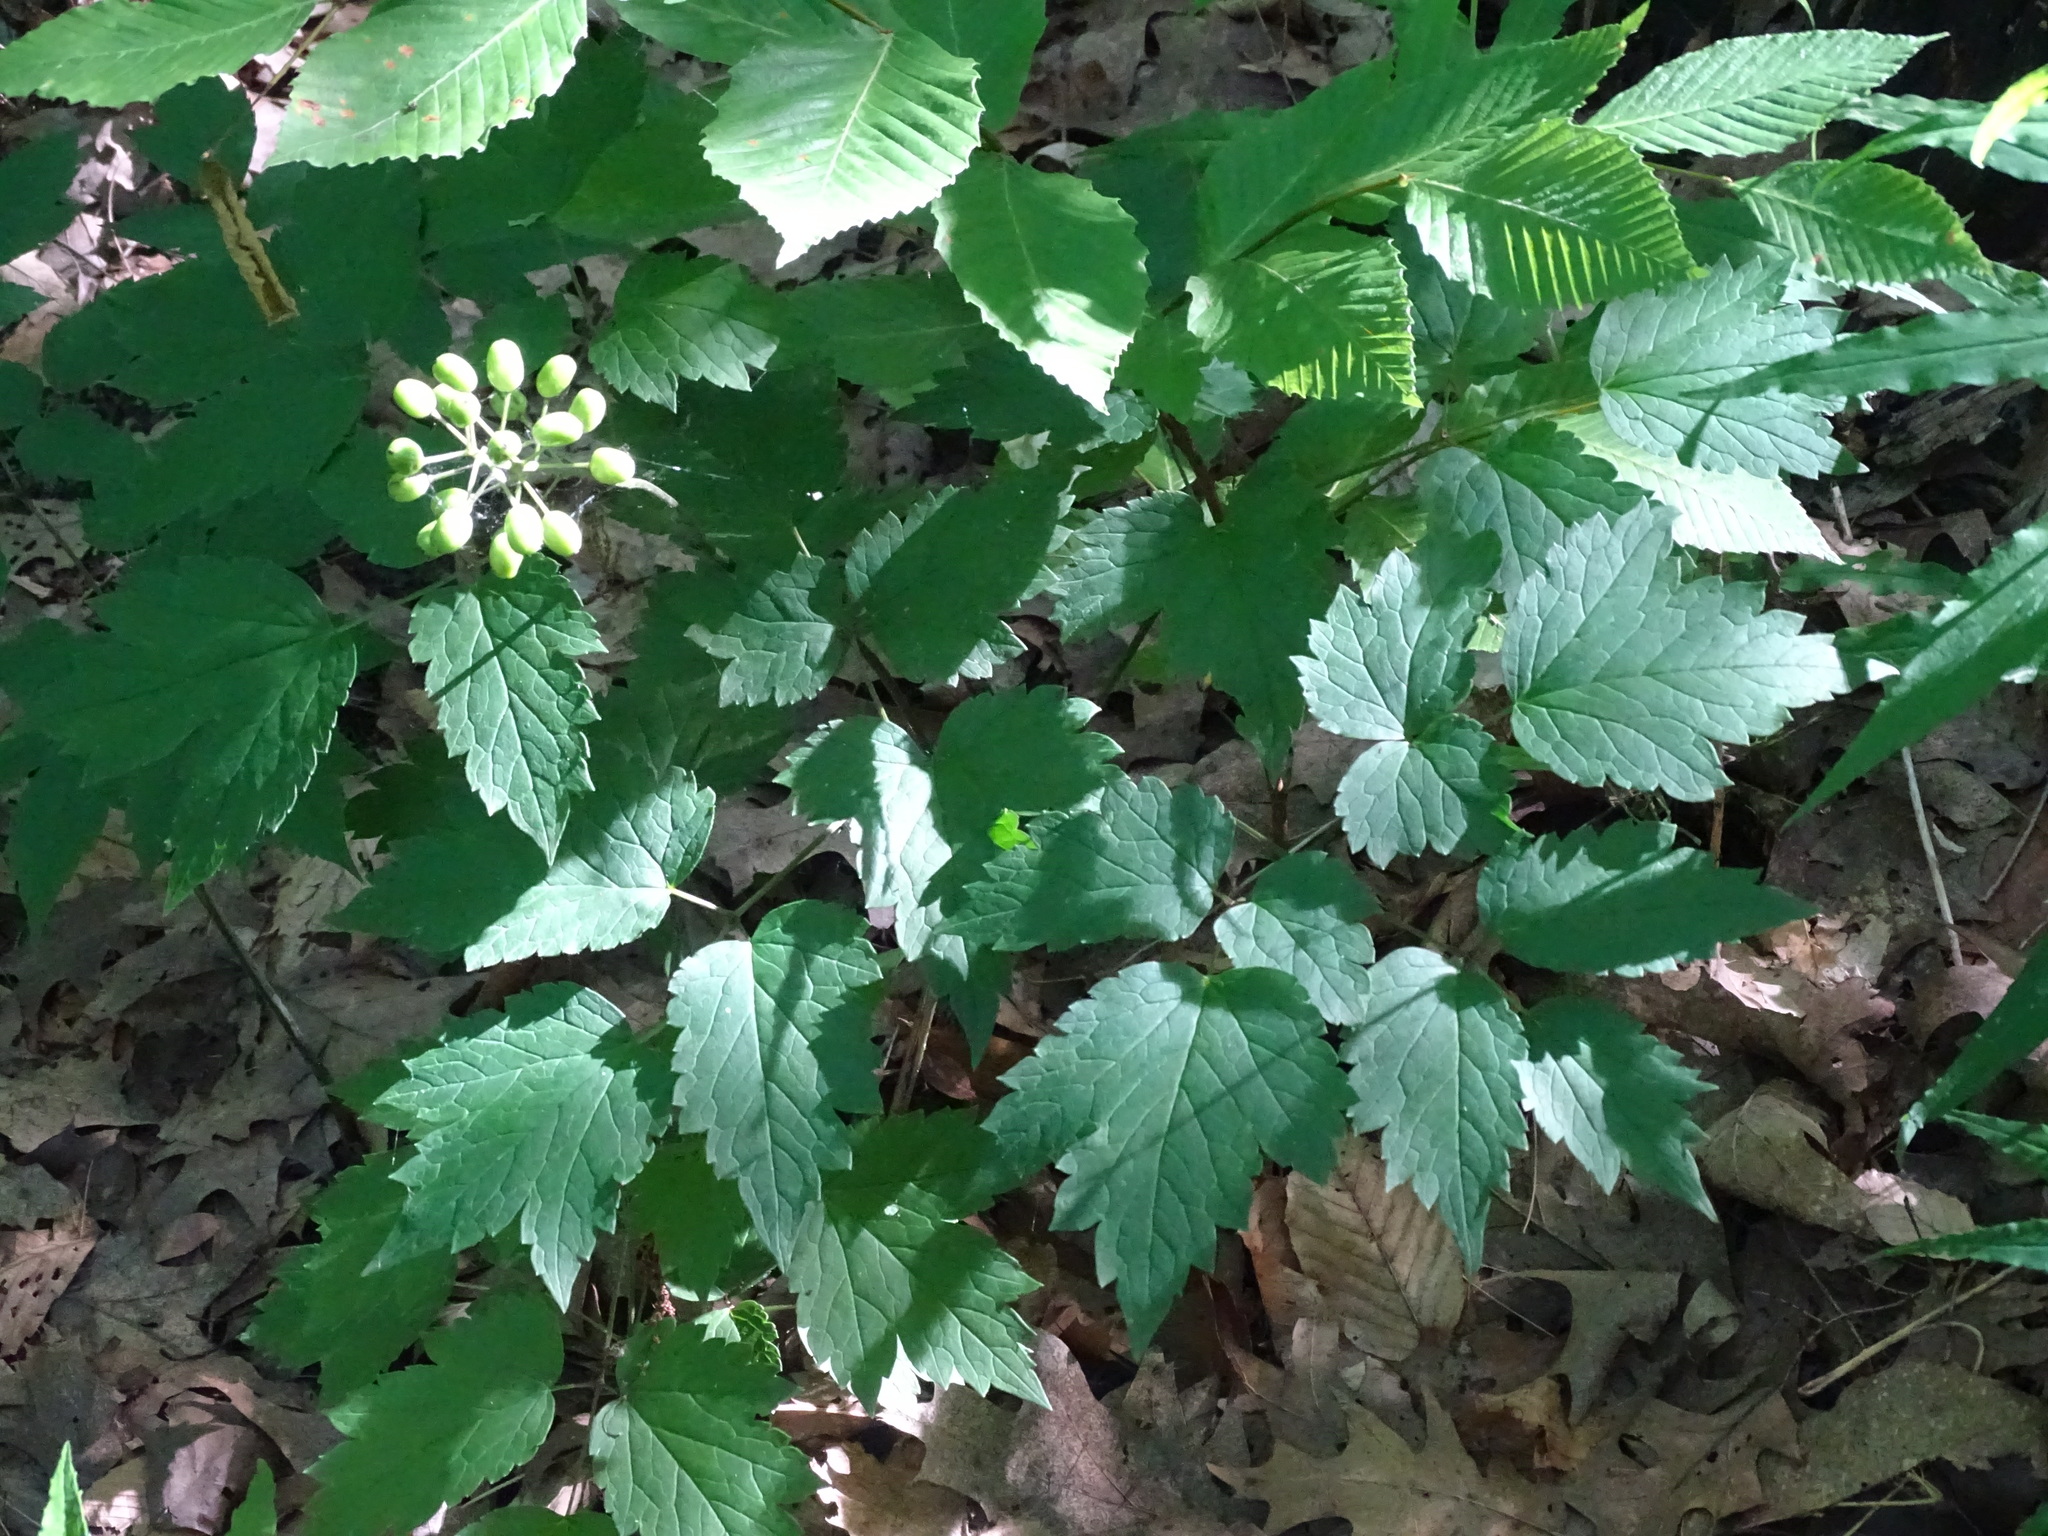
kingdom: Plantae
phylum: Tracheophyta
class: Magnoliopsida
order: Ranunculales
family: Ranunculaceae
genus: Actaea
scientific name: Actaea rubra
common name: Red baneberry
